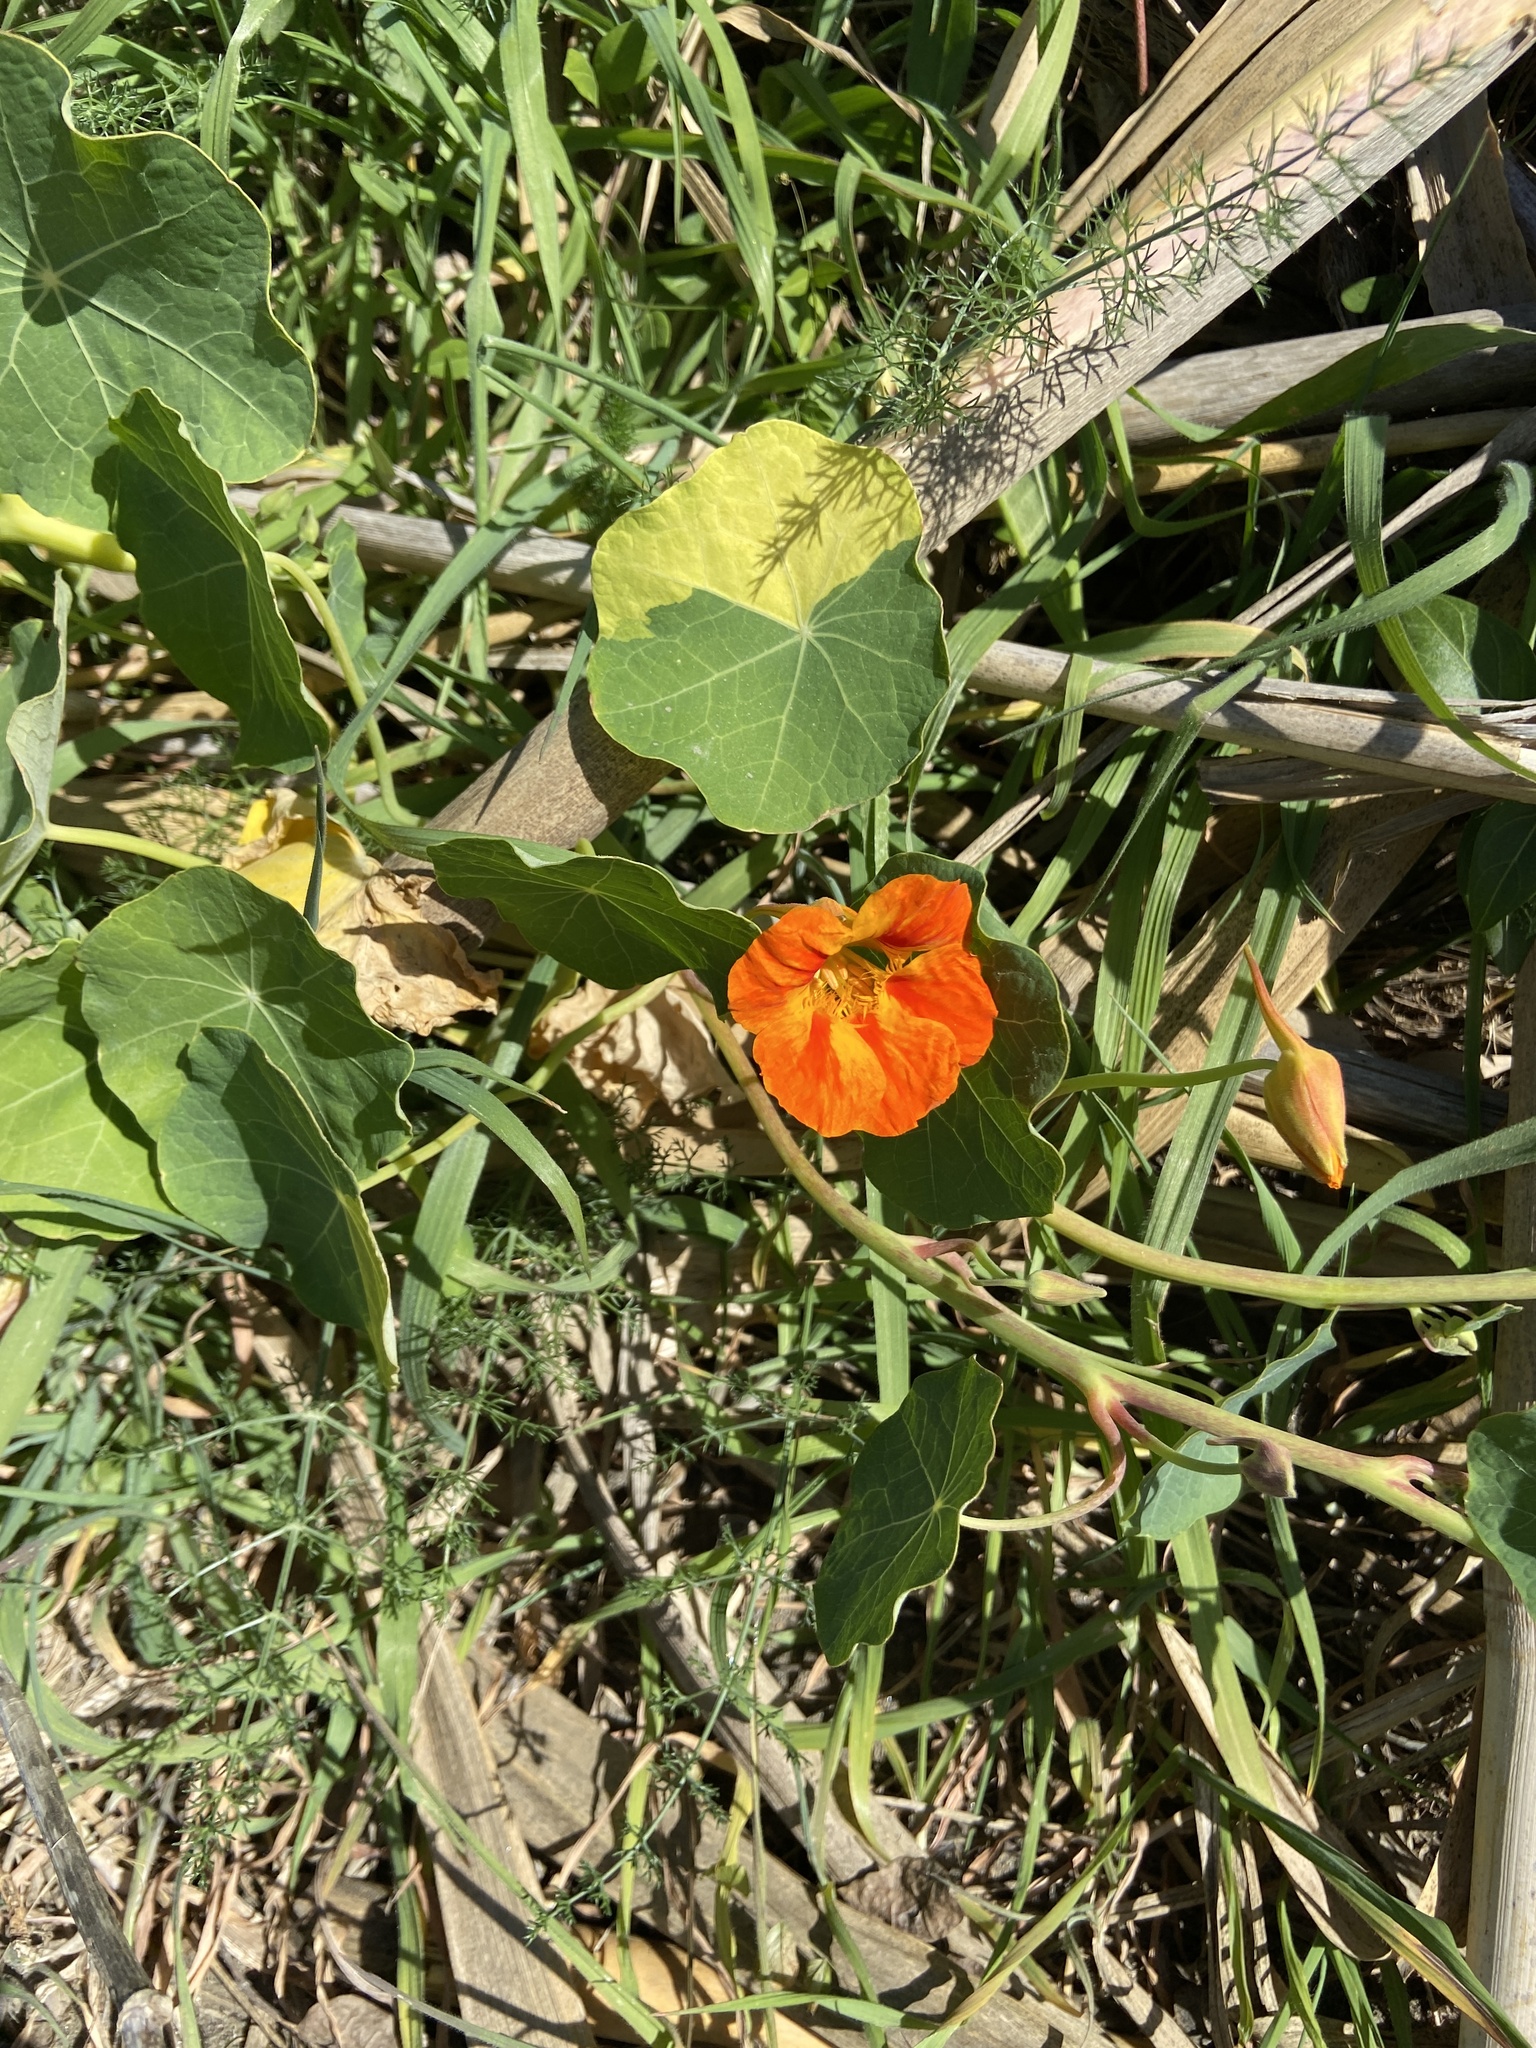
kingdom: Plantae
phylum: Tracheophyta
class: Magnoliopsida
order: Brassicales
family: Tropaeolaceae
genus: Tropaeolum
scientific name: Tropaeolum majus
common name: Nasturtium
